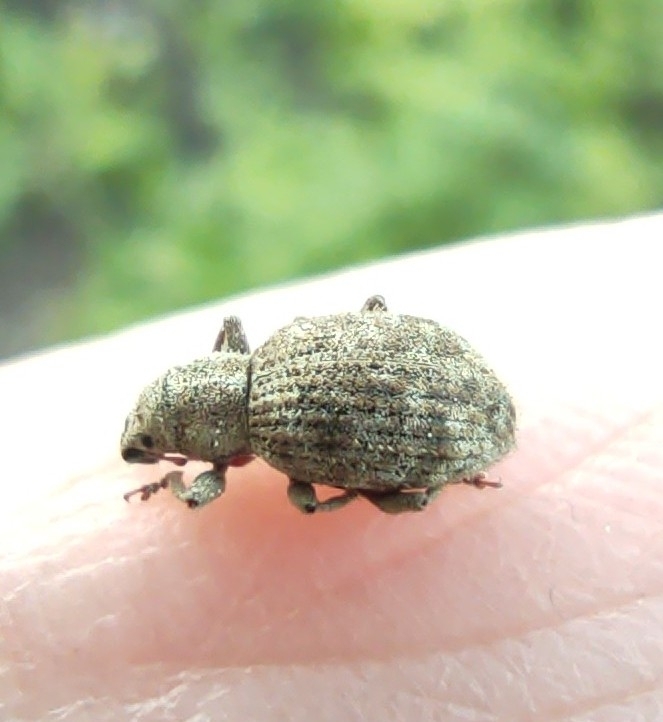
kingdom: Animalia
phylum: Arthropoda
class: Insecta
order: Coleoptera
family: Curculionidae
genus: Sciaphilus
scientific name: Sciaphilus asperatus
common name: Weevil
